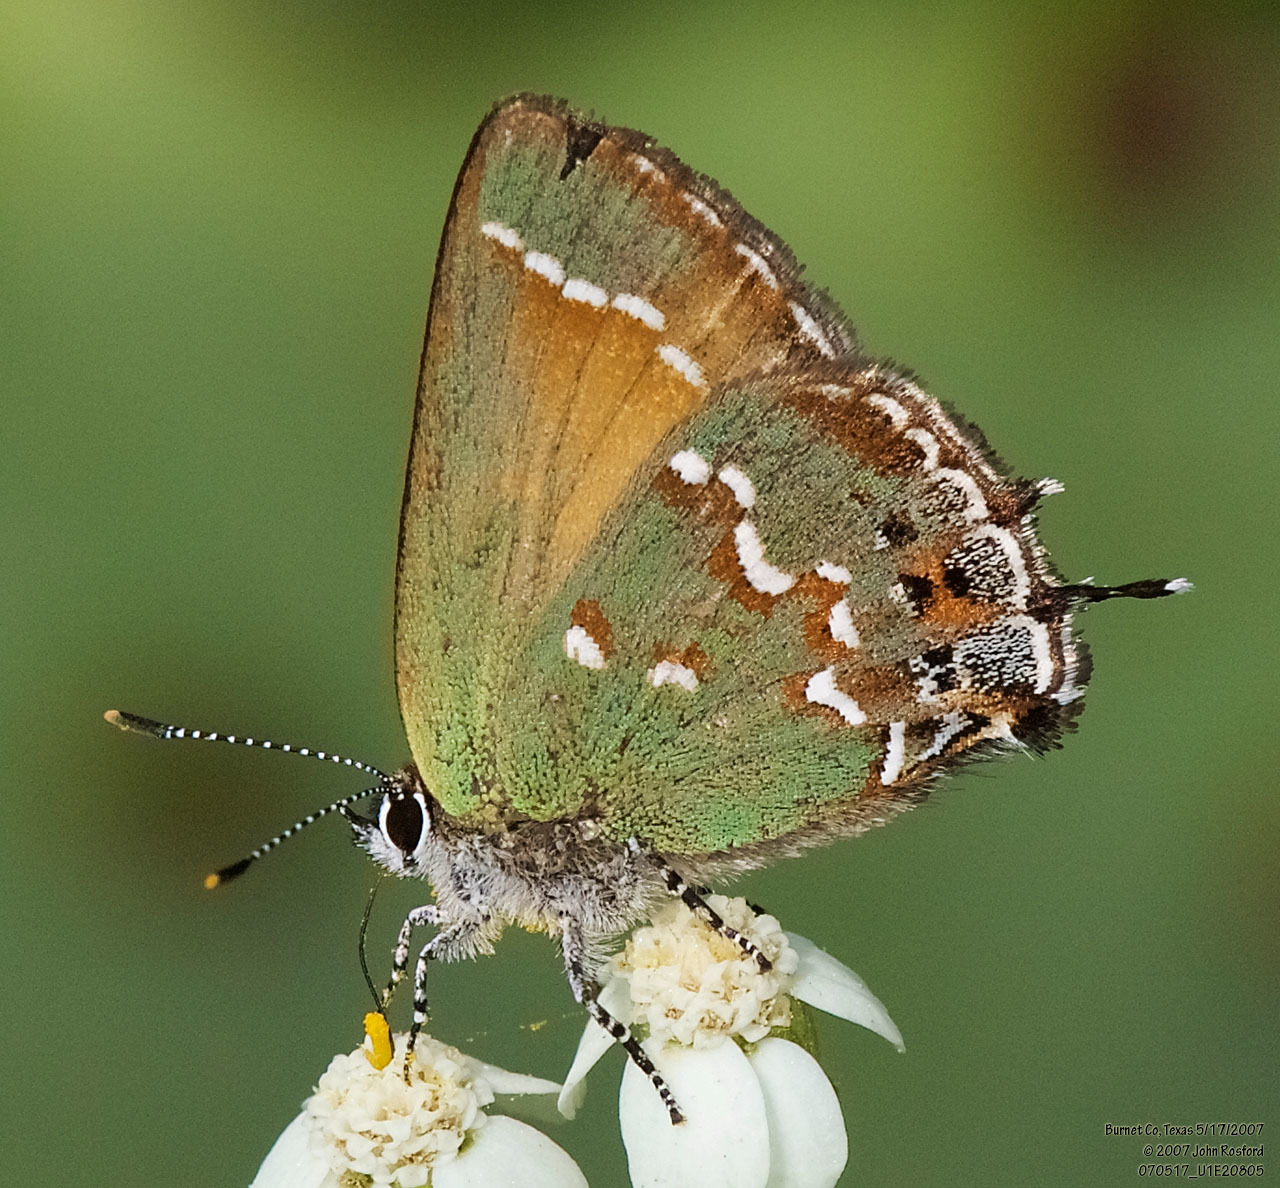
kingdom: Animalia
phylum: Arthropoda
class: Insecta
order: Lepidoptera
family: Lycaenidae
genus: Mitoura
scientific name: Mitoura gryneus
